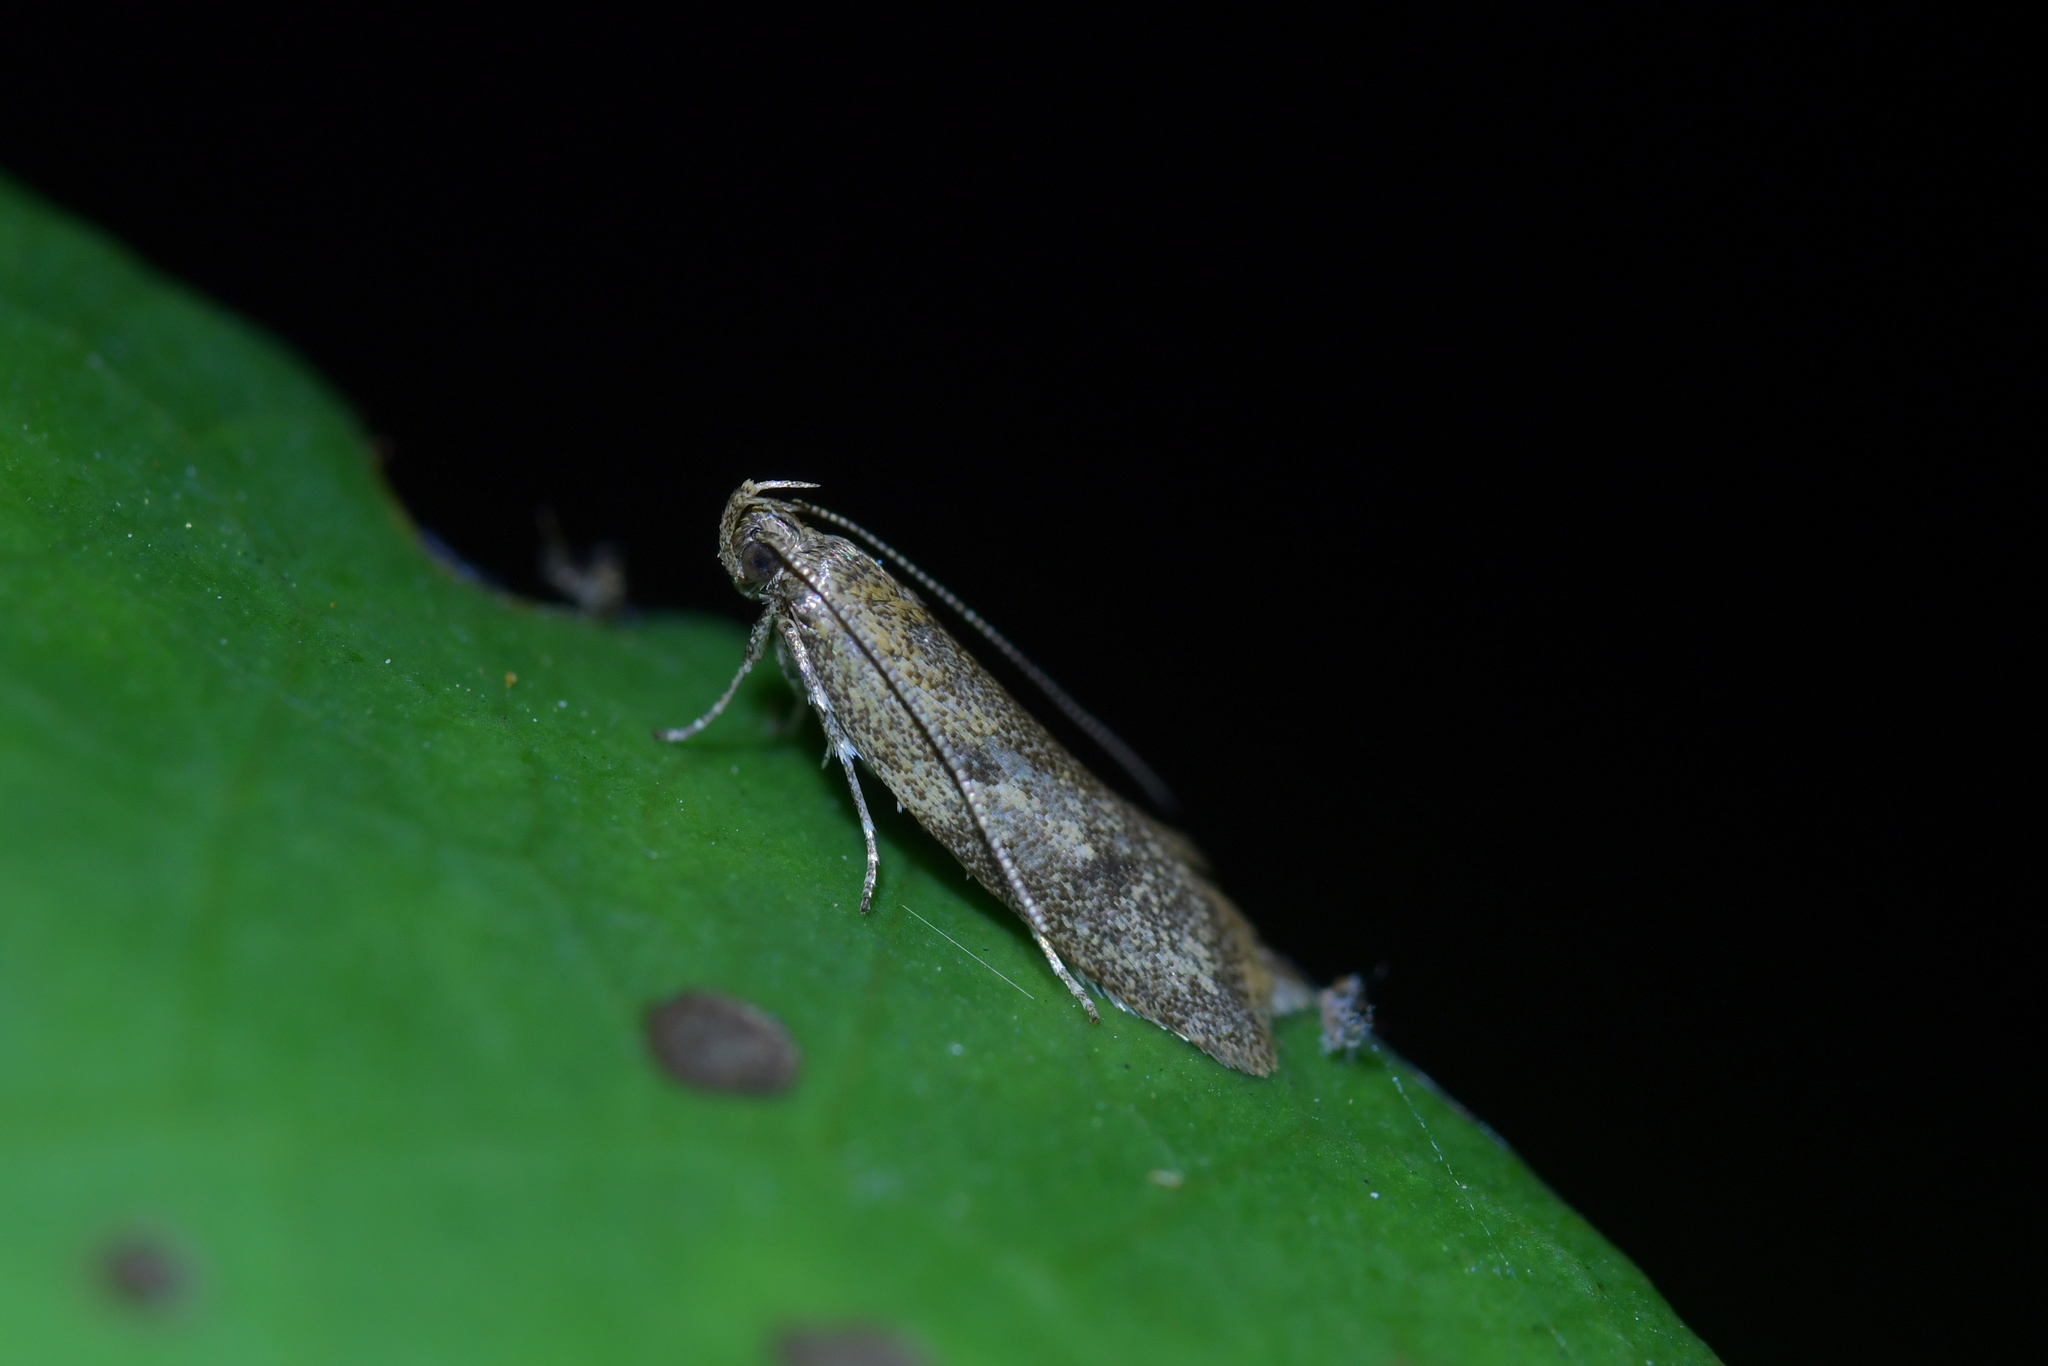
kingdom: Animalia
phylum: Arthropoda
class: Insecta
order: Lepidoptera
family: Oecophoridae
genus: Gymnobathra
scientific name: Gymnobathra tholodella
